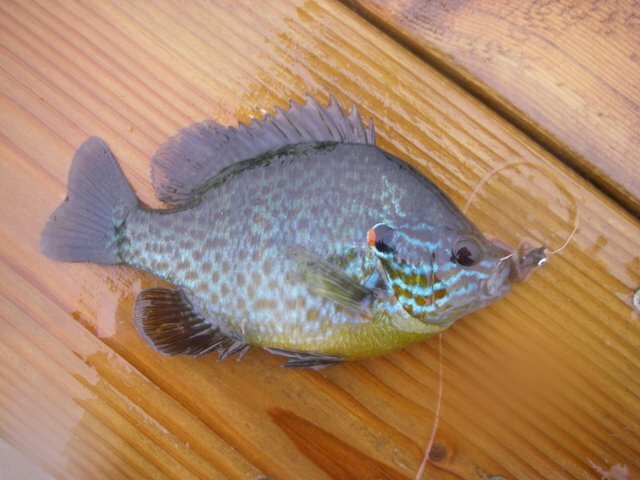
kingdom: Animalia
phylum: Chordata
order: Perciformes
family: Centrarchidae
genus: Lepomis
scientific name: Lepomis gibbosus
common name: Pumpkinseed
